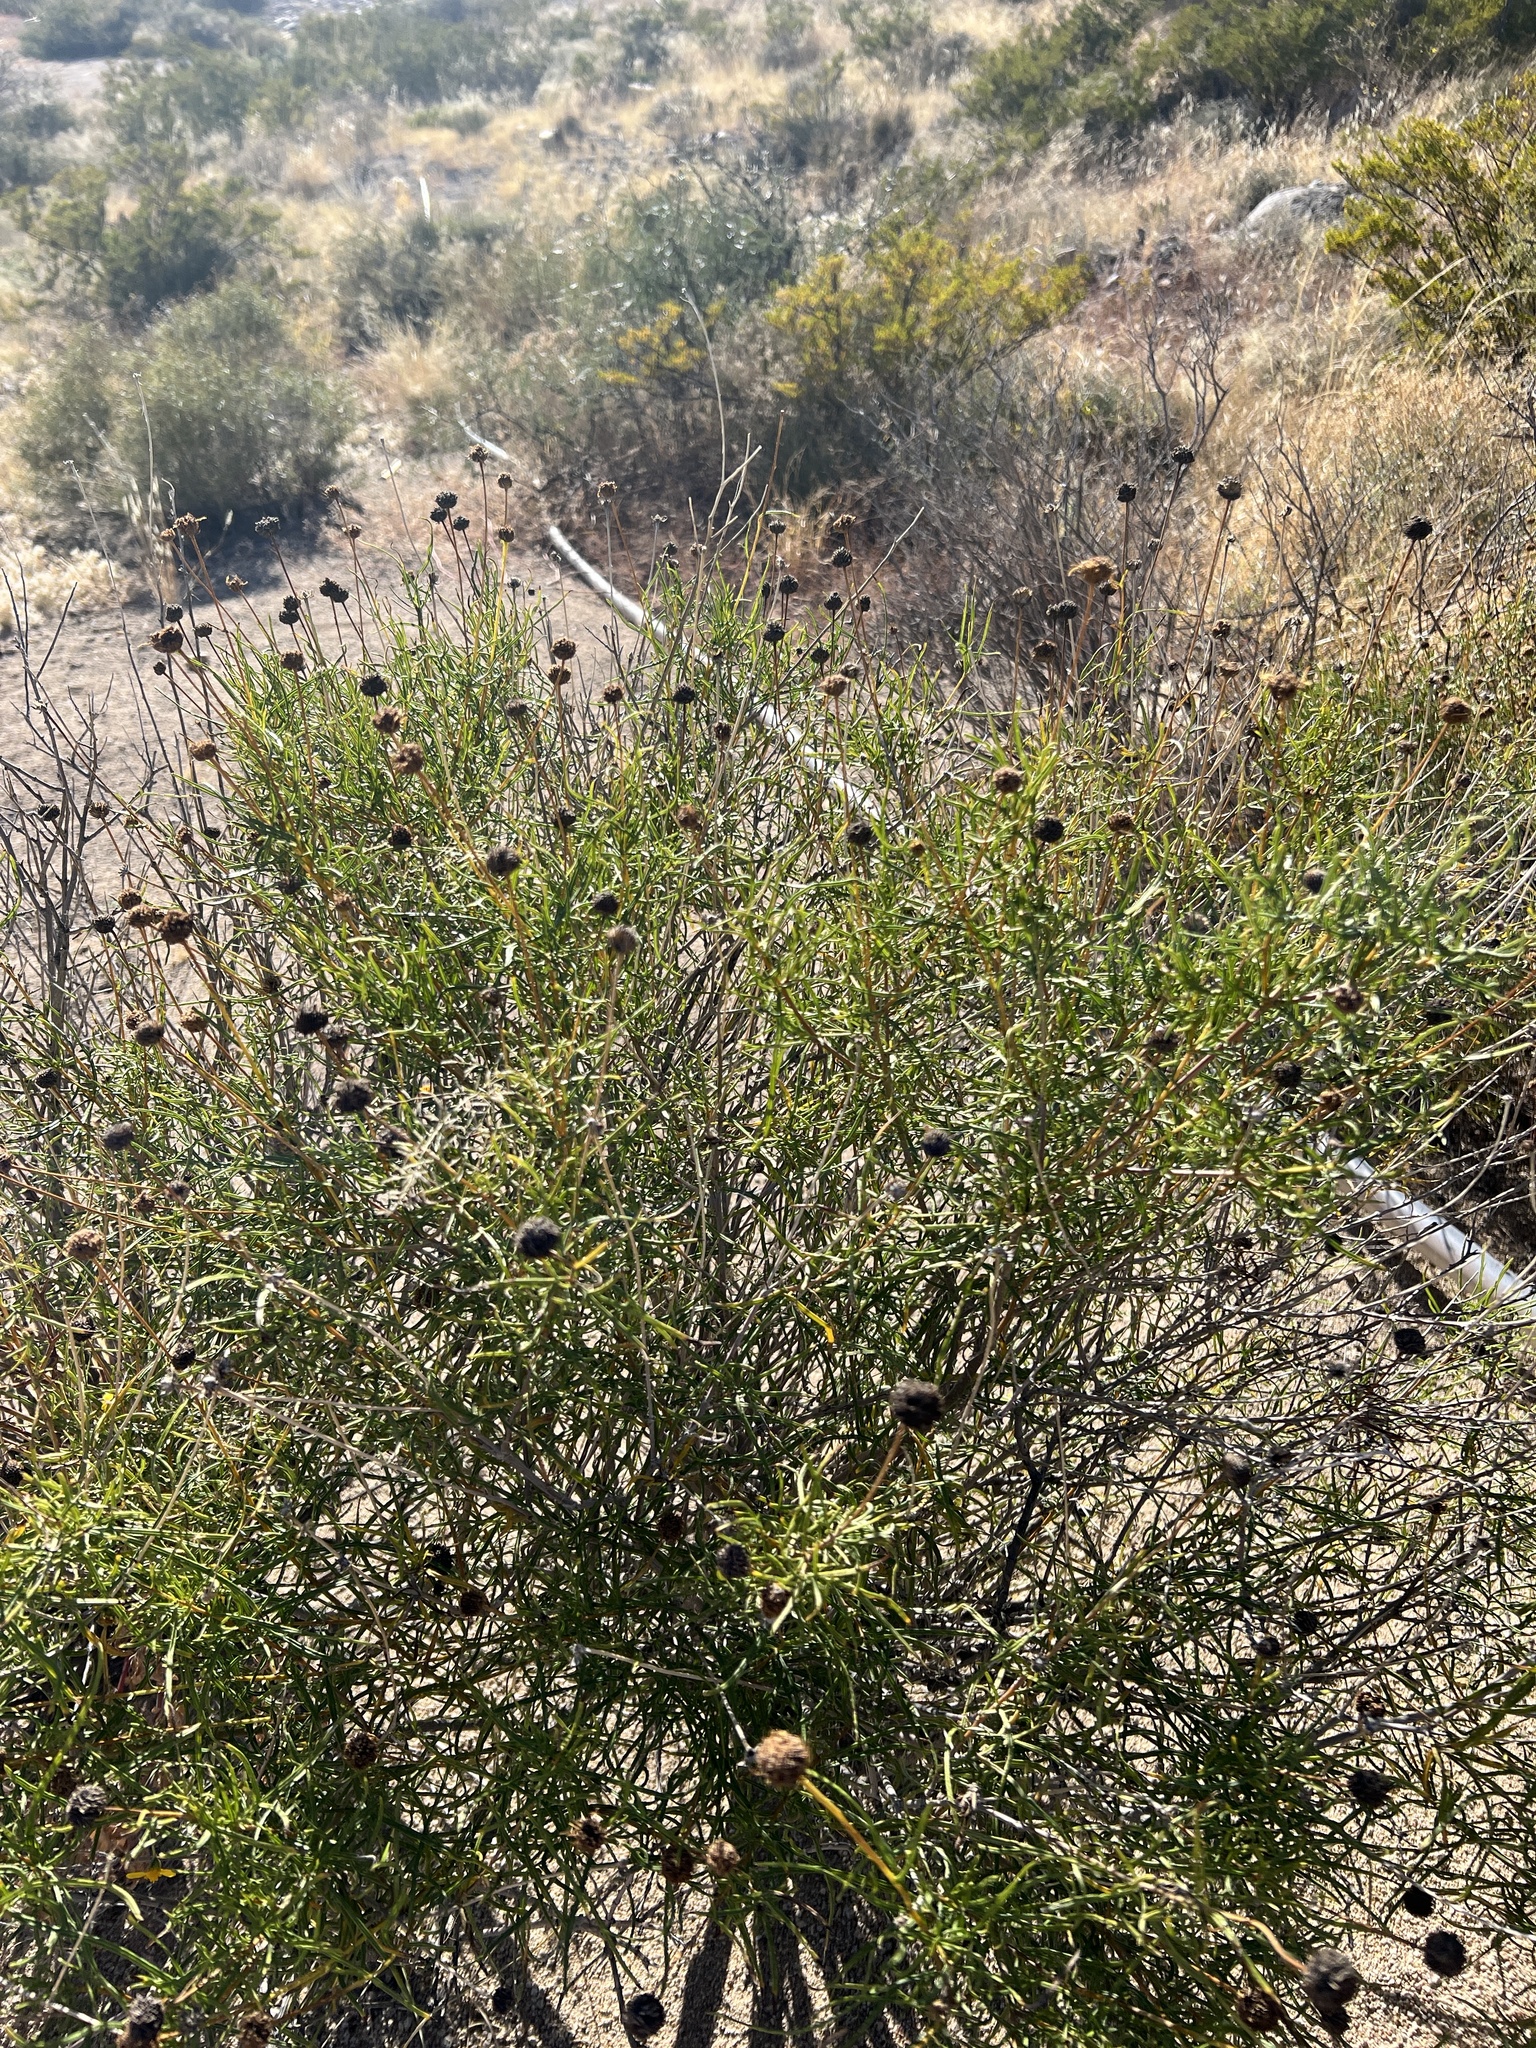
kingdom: Plantae
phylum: Tracheophyta
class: Magnoliopsida
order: Asterales
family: Asteraceae
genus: Sidneya
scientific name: Sidneya tenuifolia
